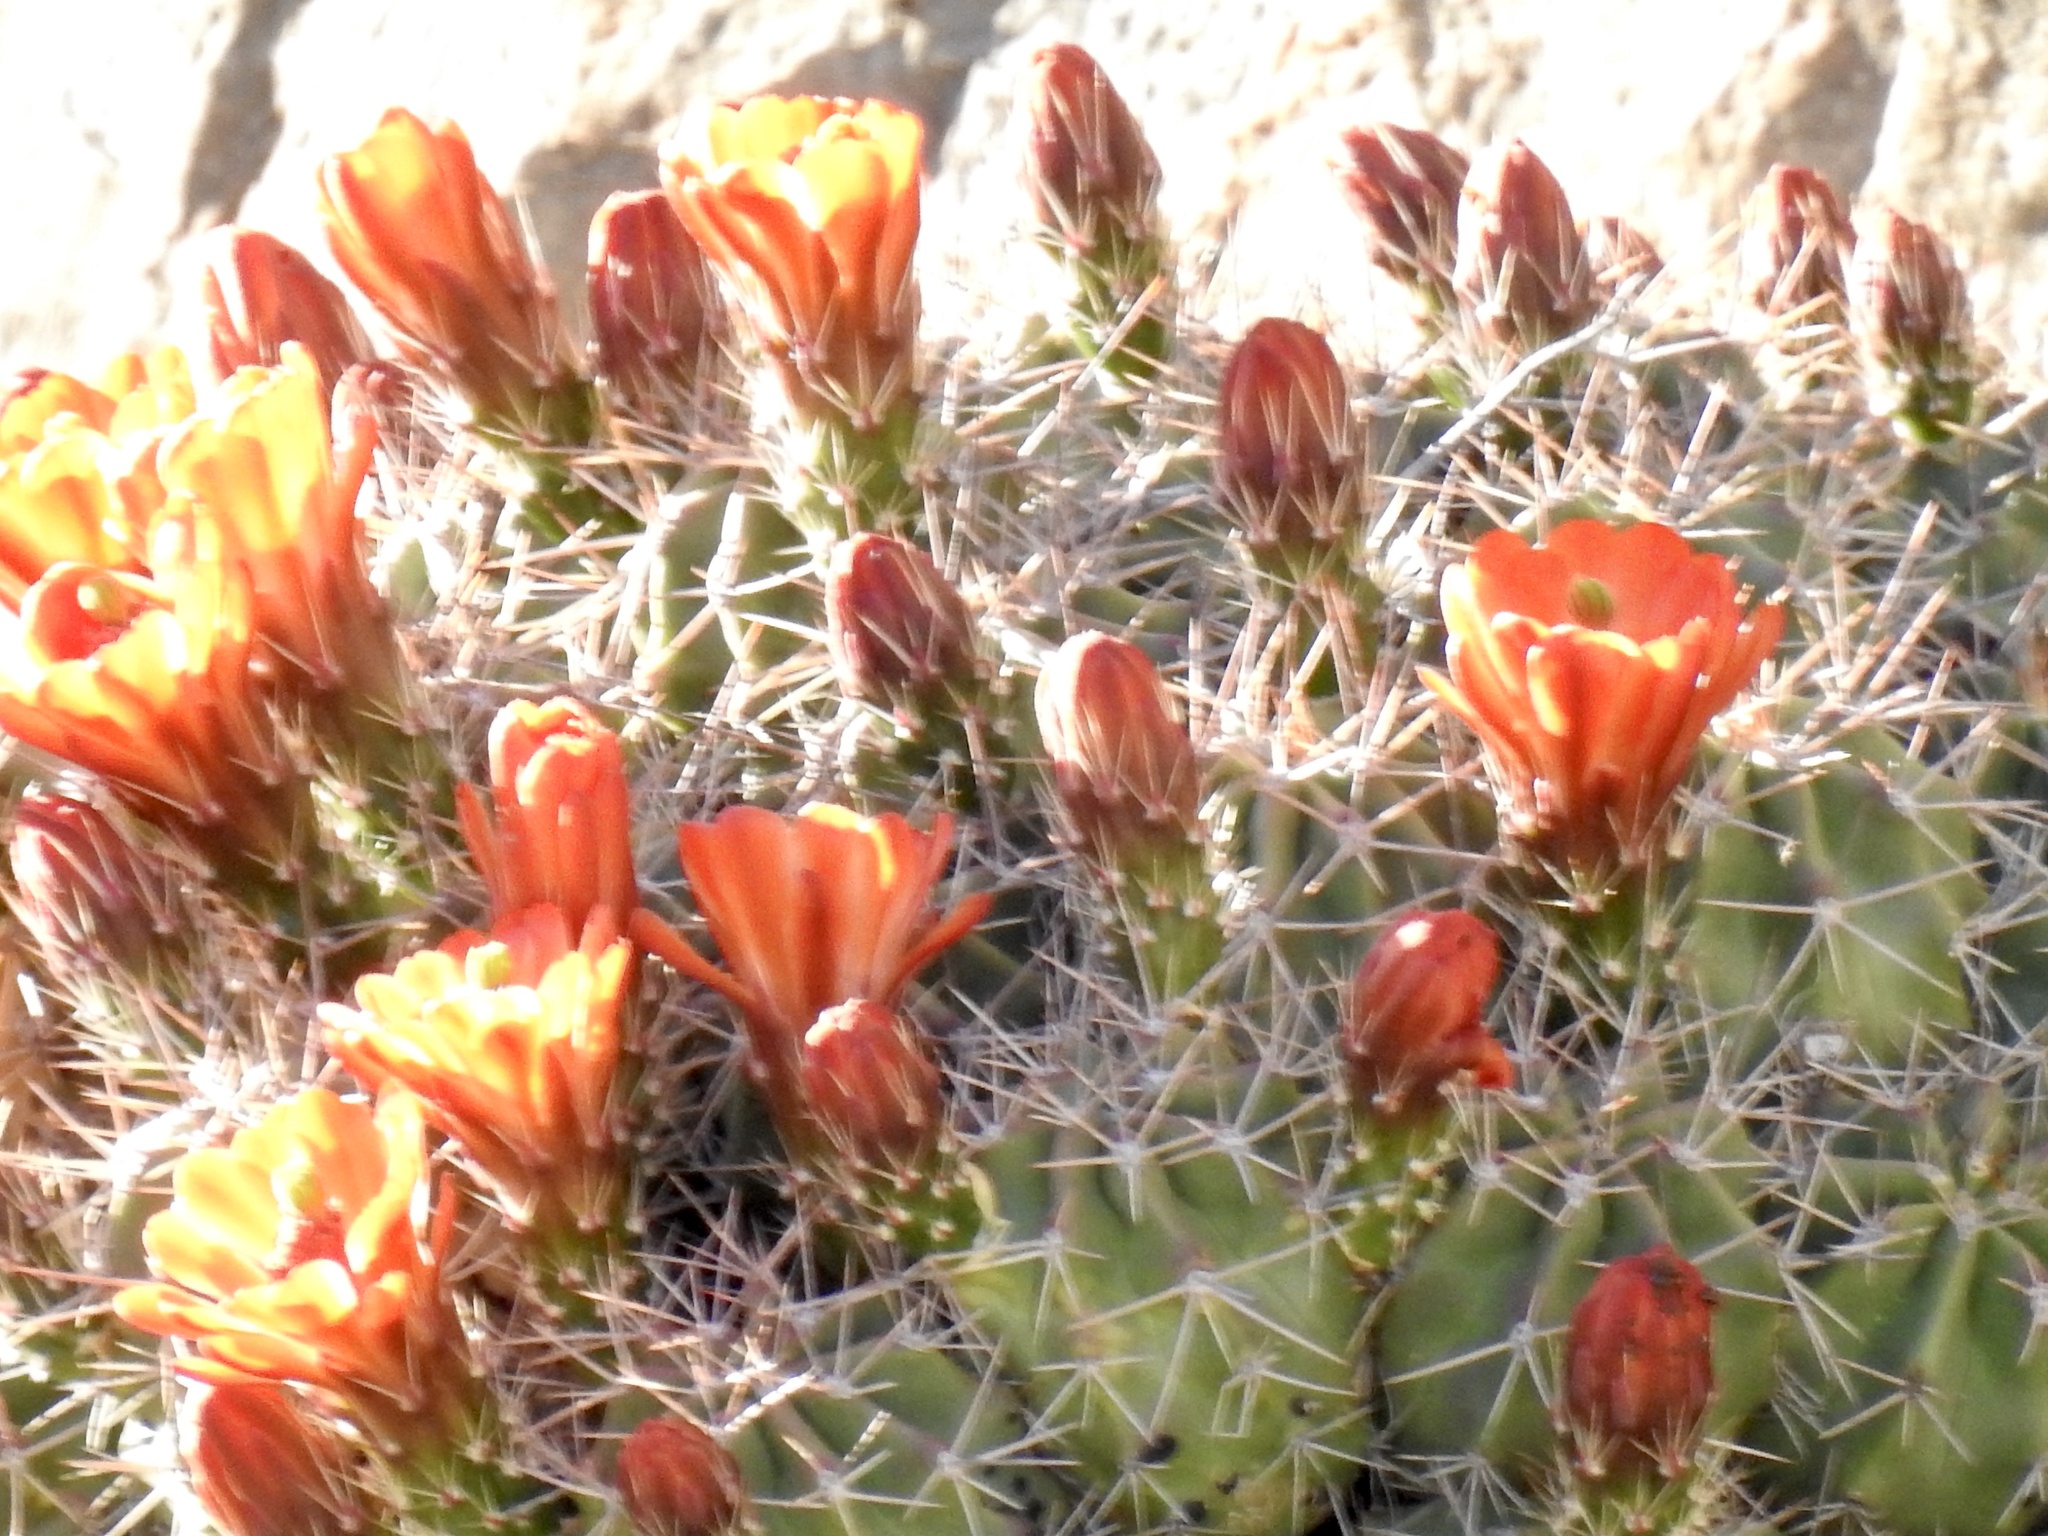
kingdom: Plantae
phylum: Tracheophyta
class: Magnoliopsida
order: Caryophyllales
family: Cactaceae
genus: Echinocereus
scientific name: Echinocereus coccineus
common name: Scarlet hedgehog cactus
